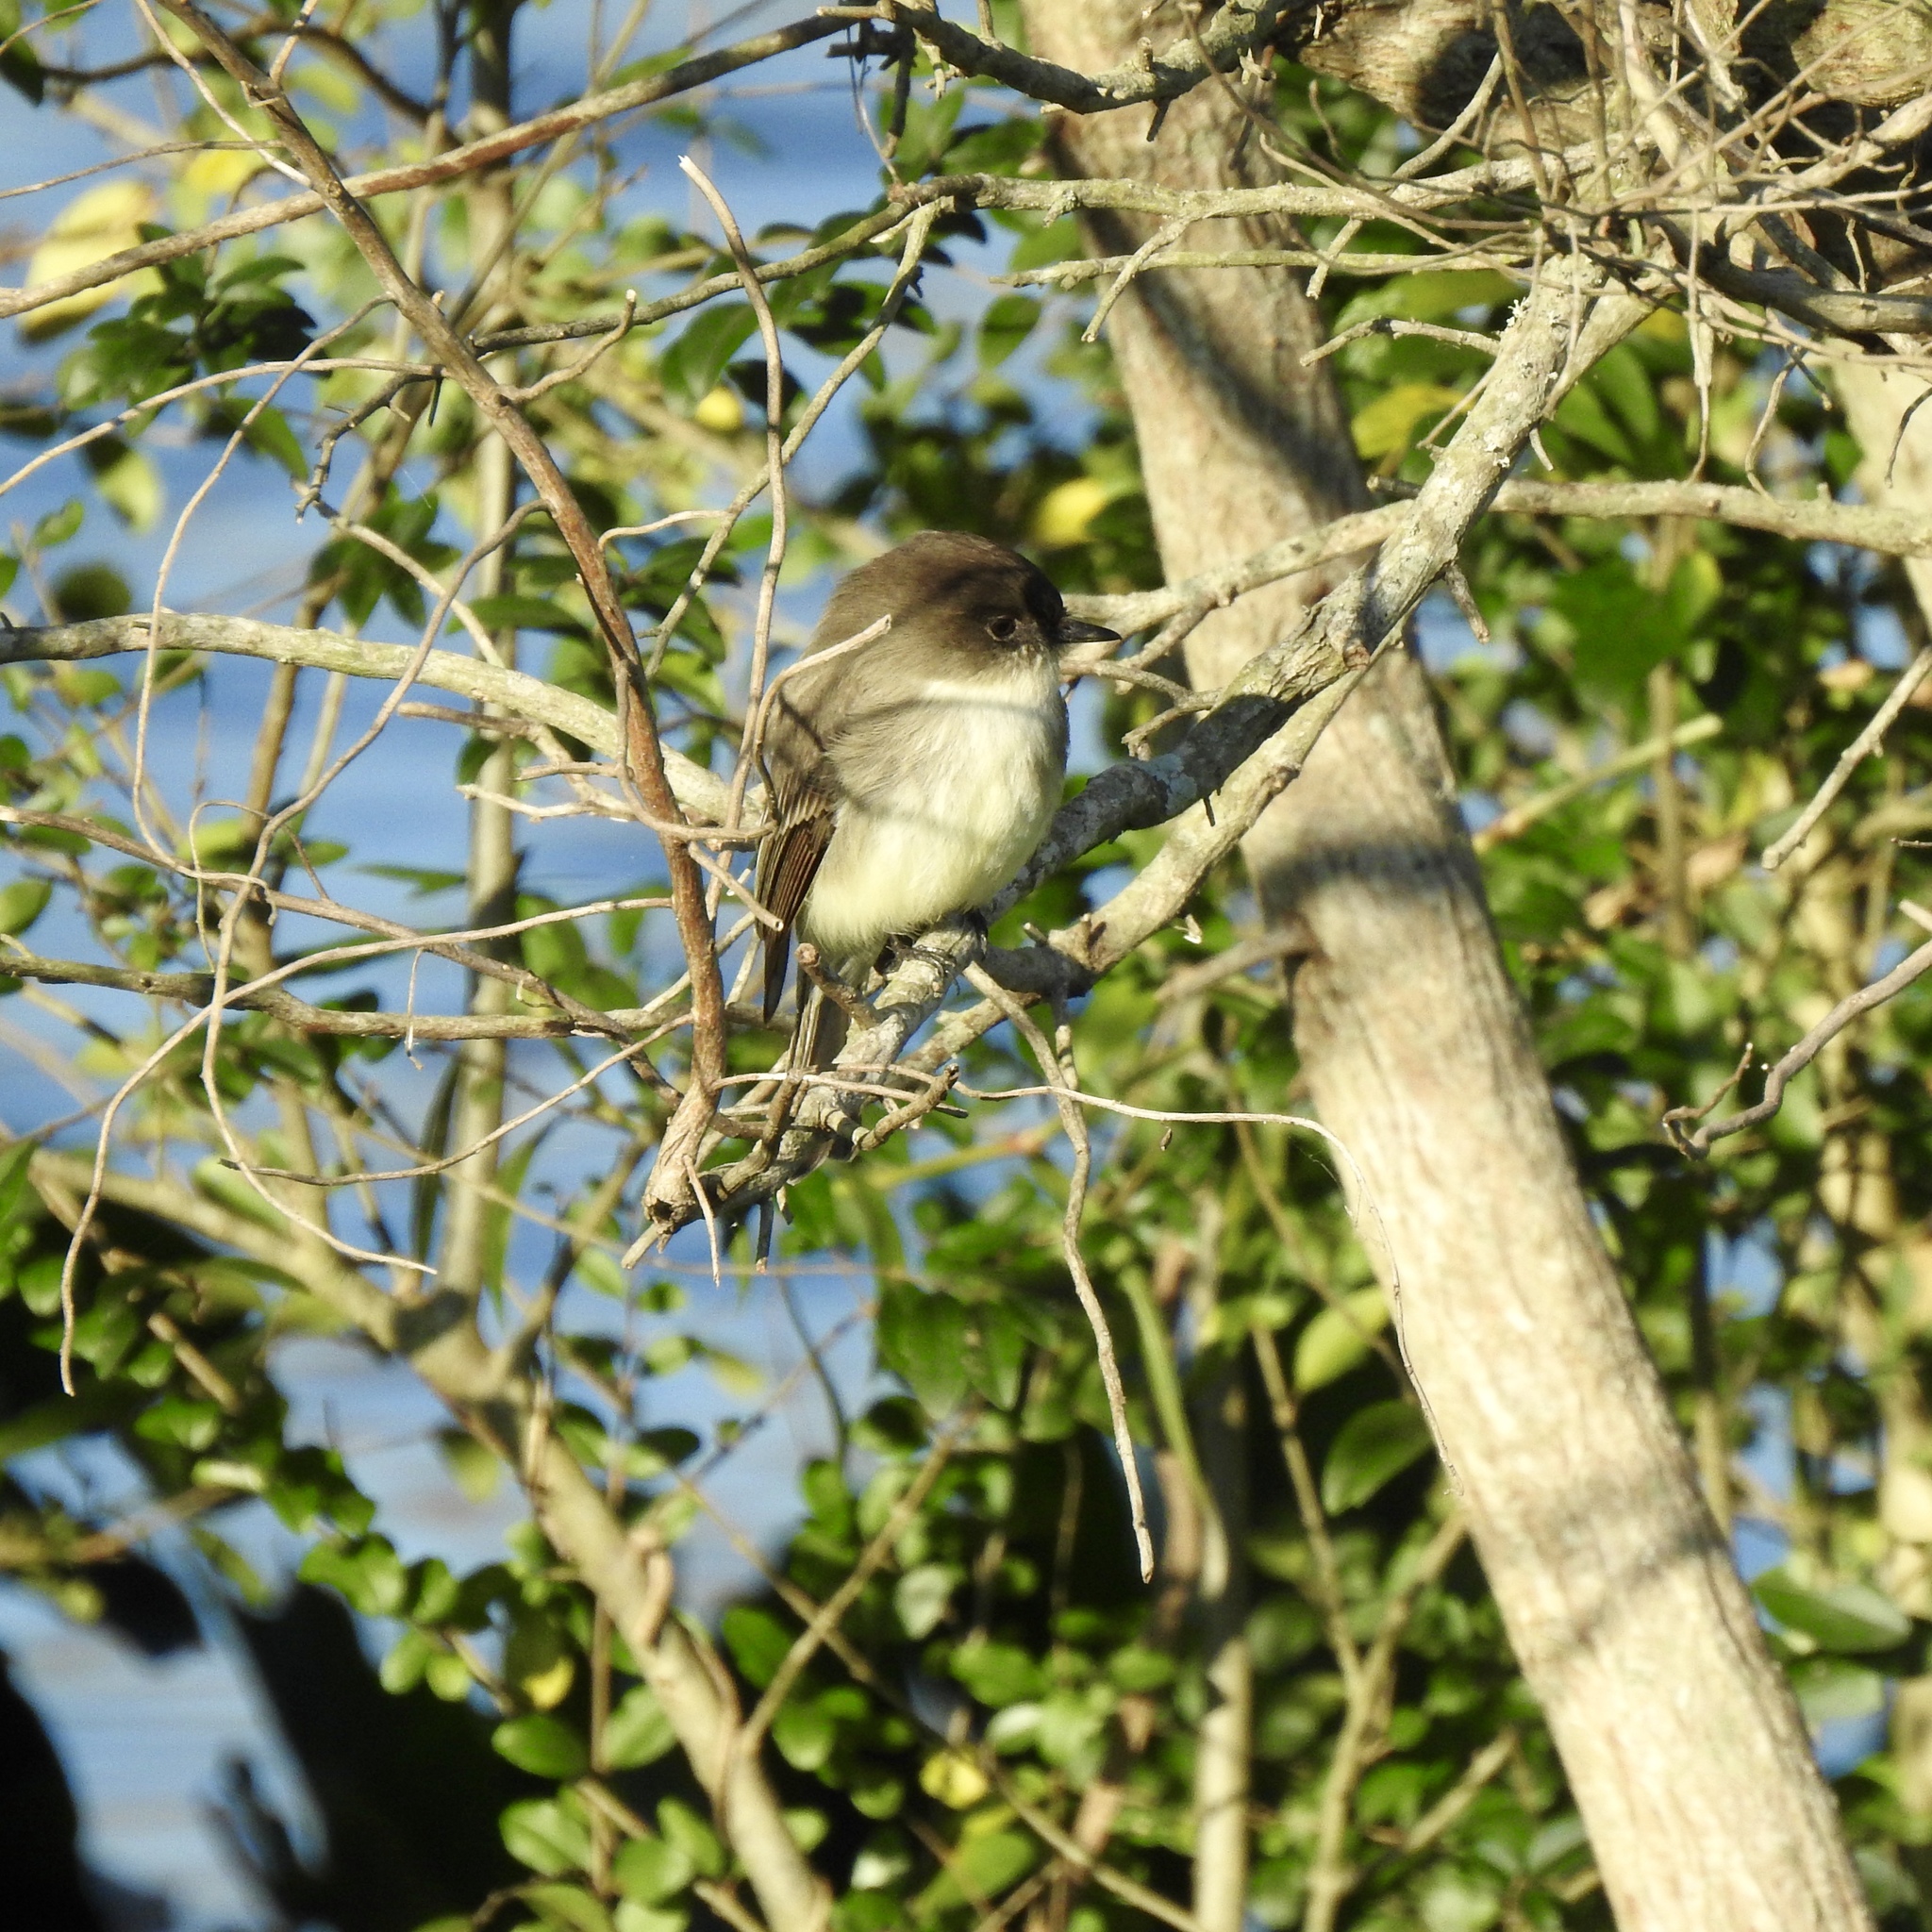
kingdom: Animalia
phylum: Chordata
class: Aves
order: Passeriformes
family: Tyrannidae
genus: Sayornis
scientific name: Sayornis phoebe
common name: Eastern phoebe
